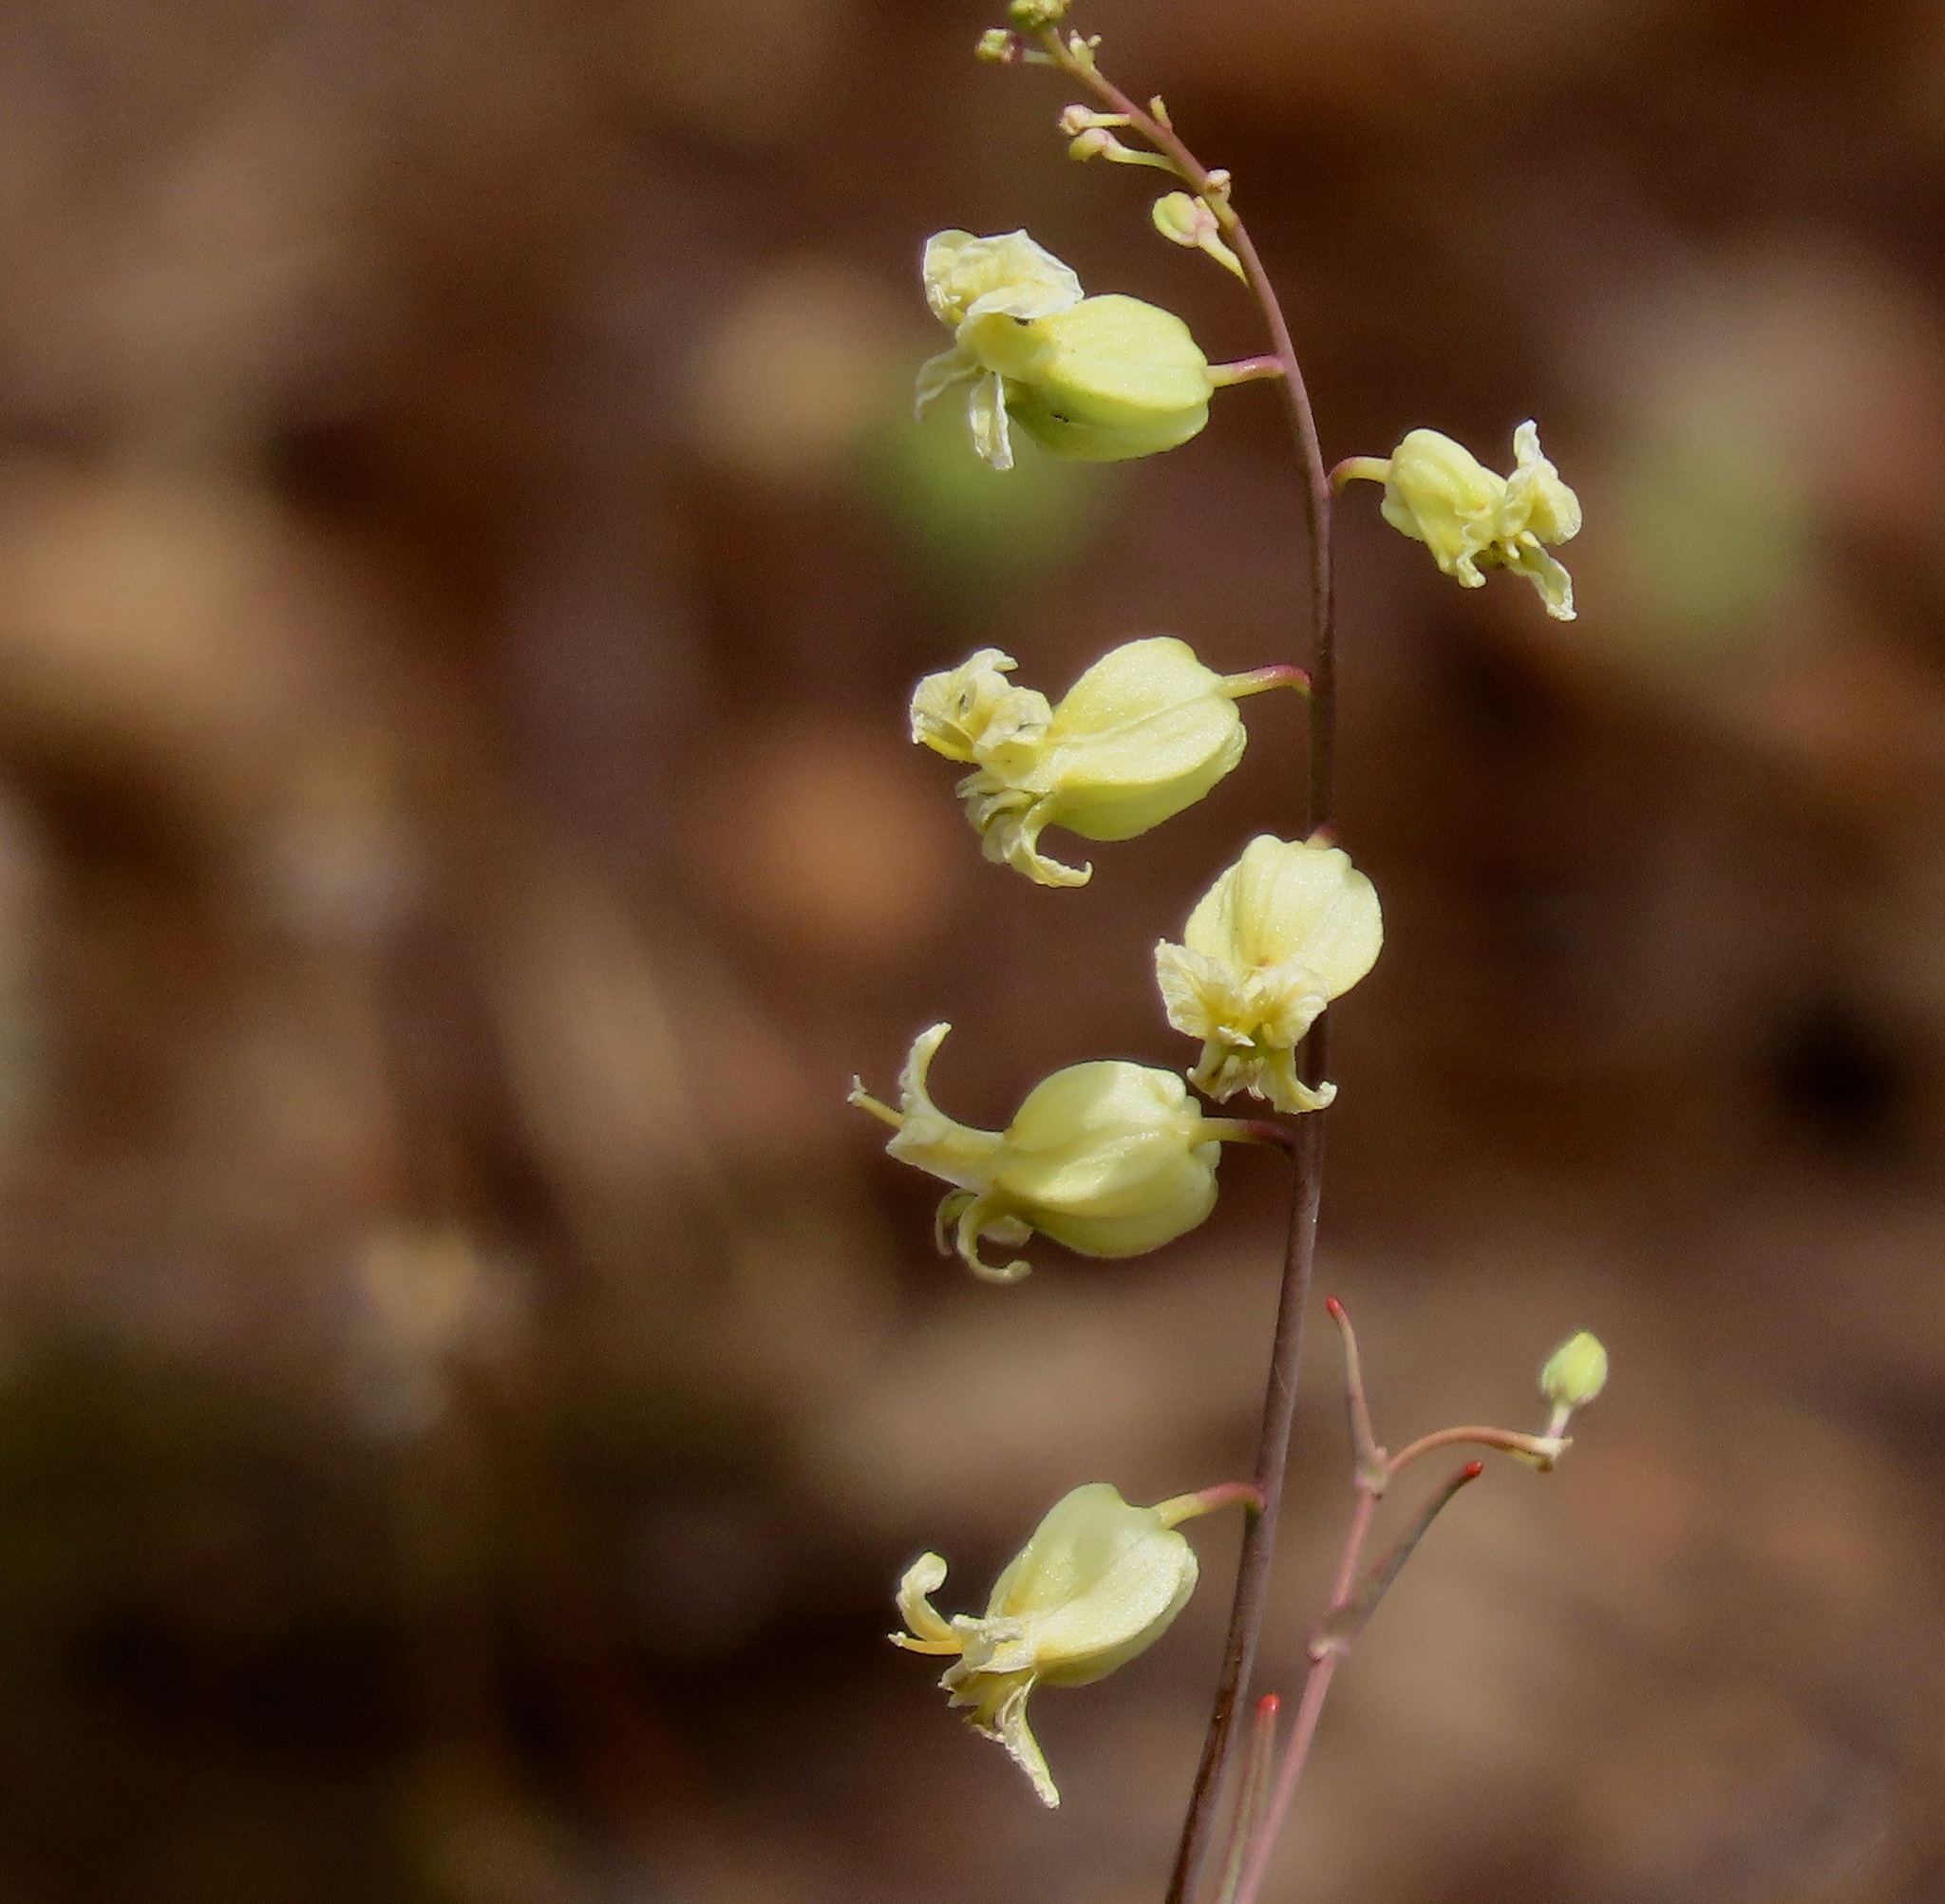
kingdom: Plantae
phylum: Tracheophyta
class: Magnoliopsida
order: Brassicales
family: Brassicaceae
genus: Streptanthus
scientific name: Streptanthus glandulosus
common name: Jewel-flower
